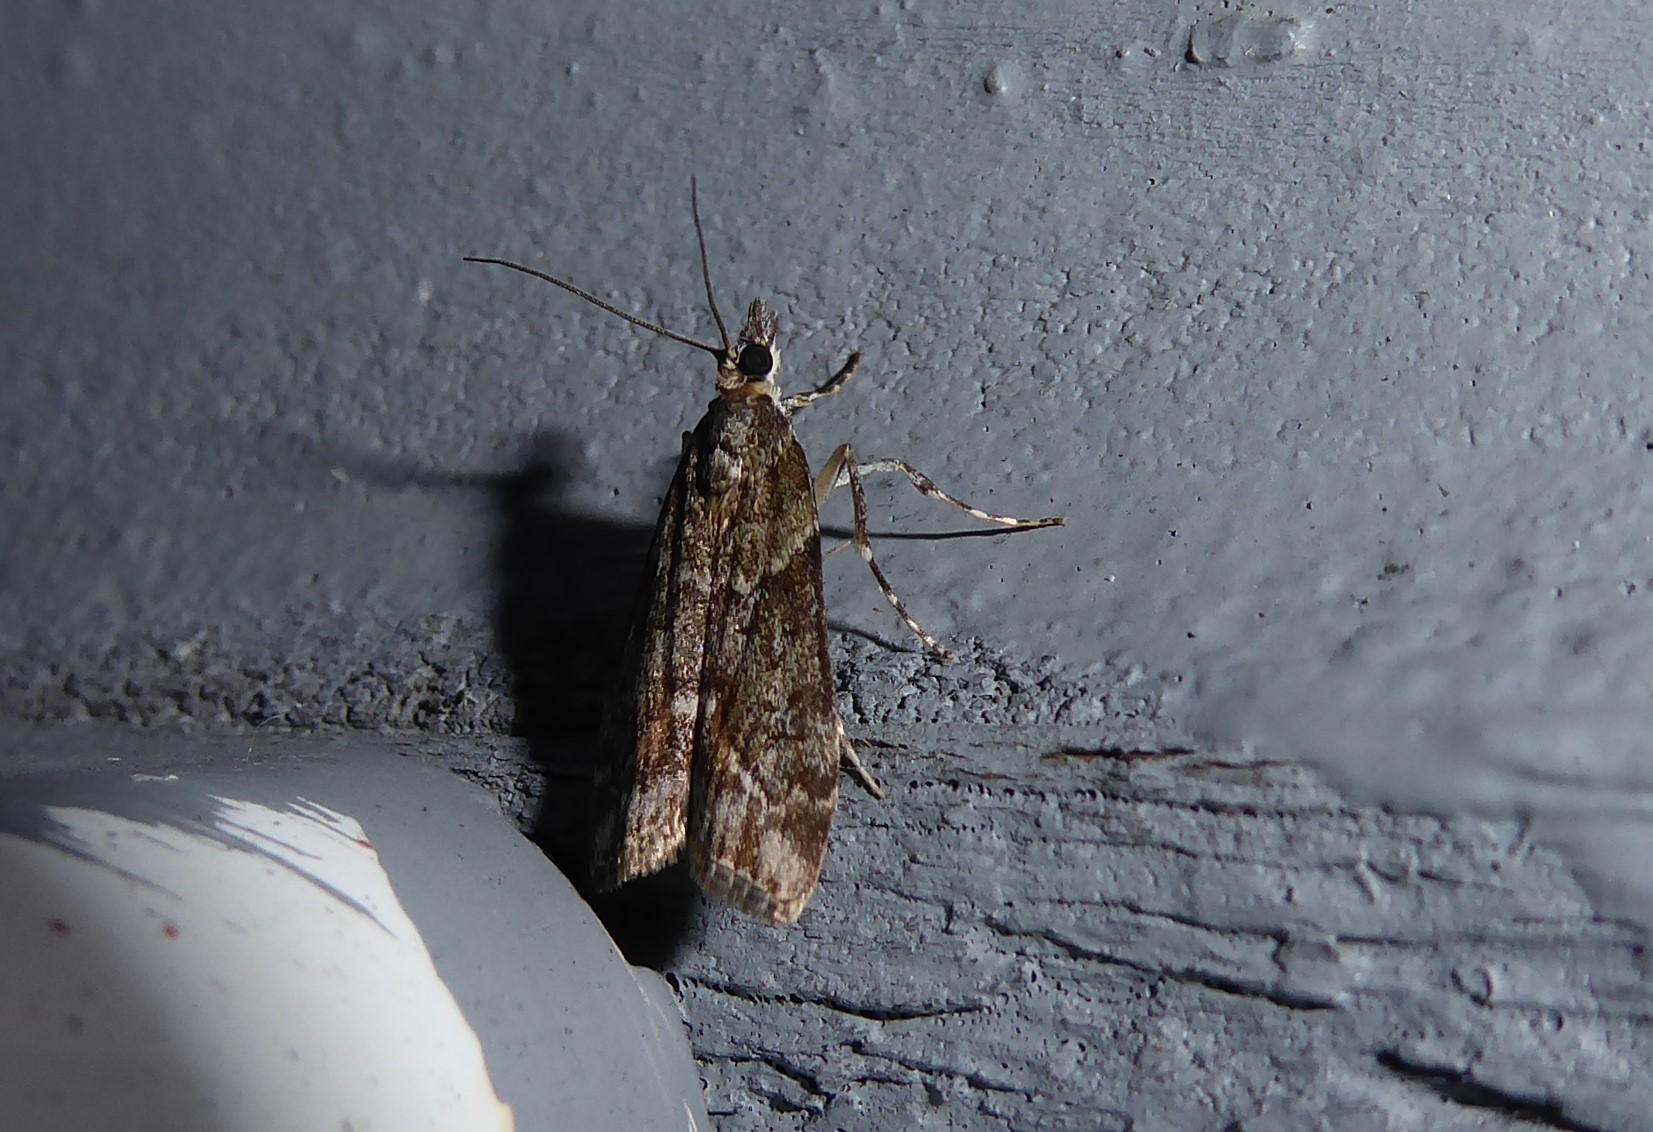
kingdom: Animalia
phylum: Arthropoda
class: Insecta
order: Lepidoptera
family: Crambidae
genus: Eudonia
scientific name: Eudonia submarginalis
